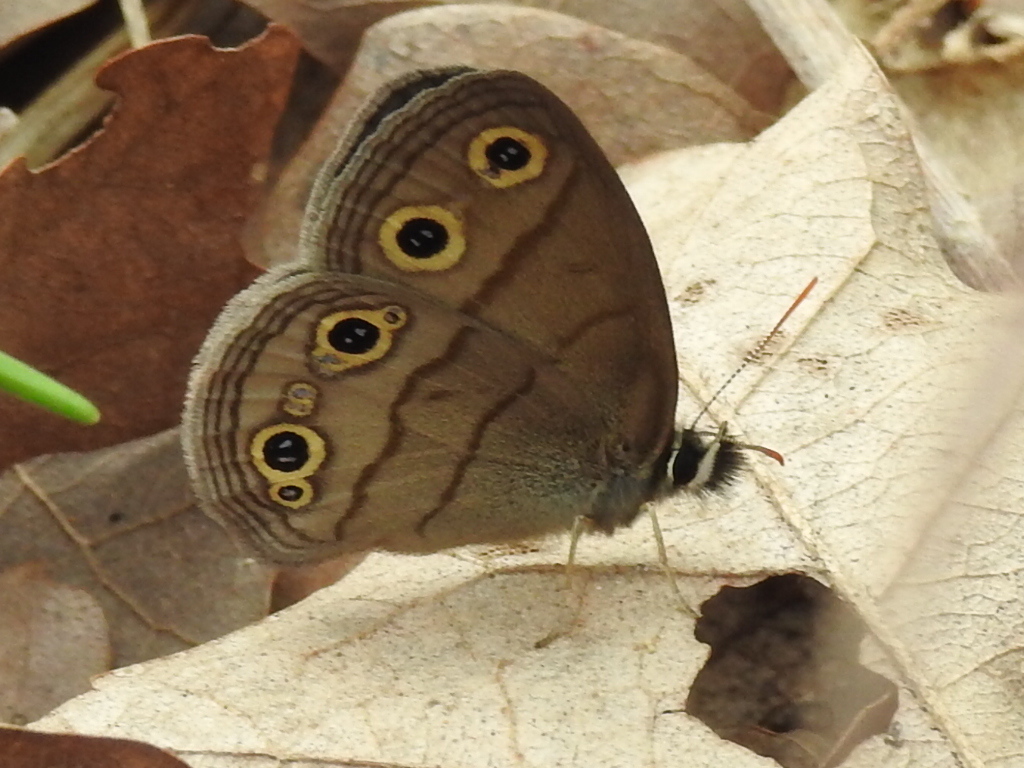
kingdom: Animalia
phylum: Arthropoda
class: Insecta
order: Lepidoptera
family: Nymphalidae
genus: Euptychia
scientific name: Euptychia cymela
